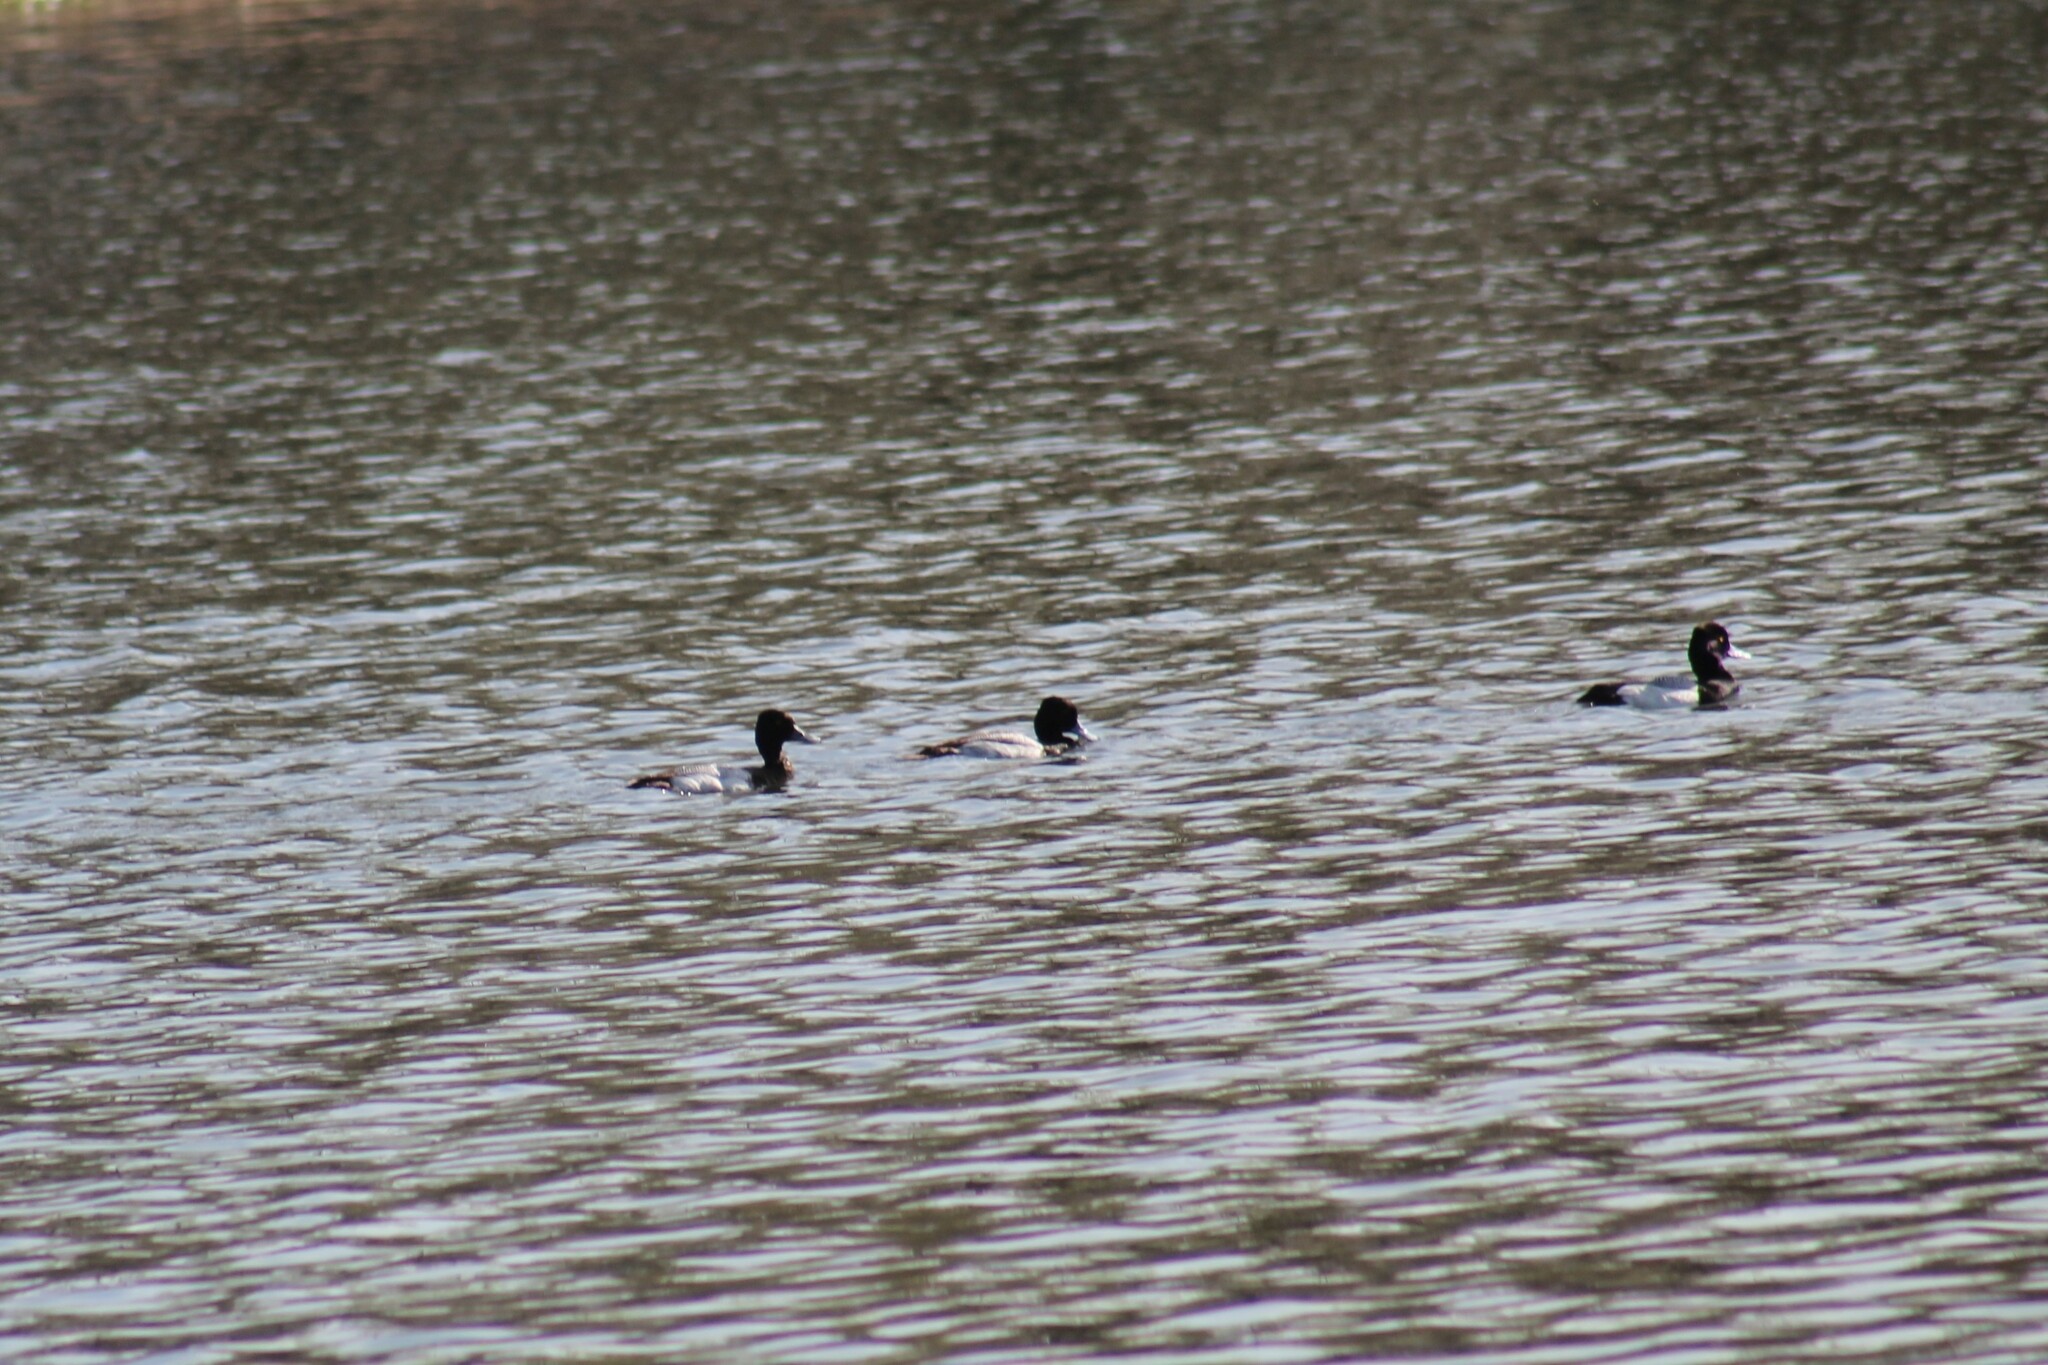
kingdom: Animalia
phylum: Chordata
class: Aves
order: Anseriformes
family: Anatidae
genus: Aythya
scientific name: Aythya affinis
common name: Lesser scaup
